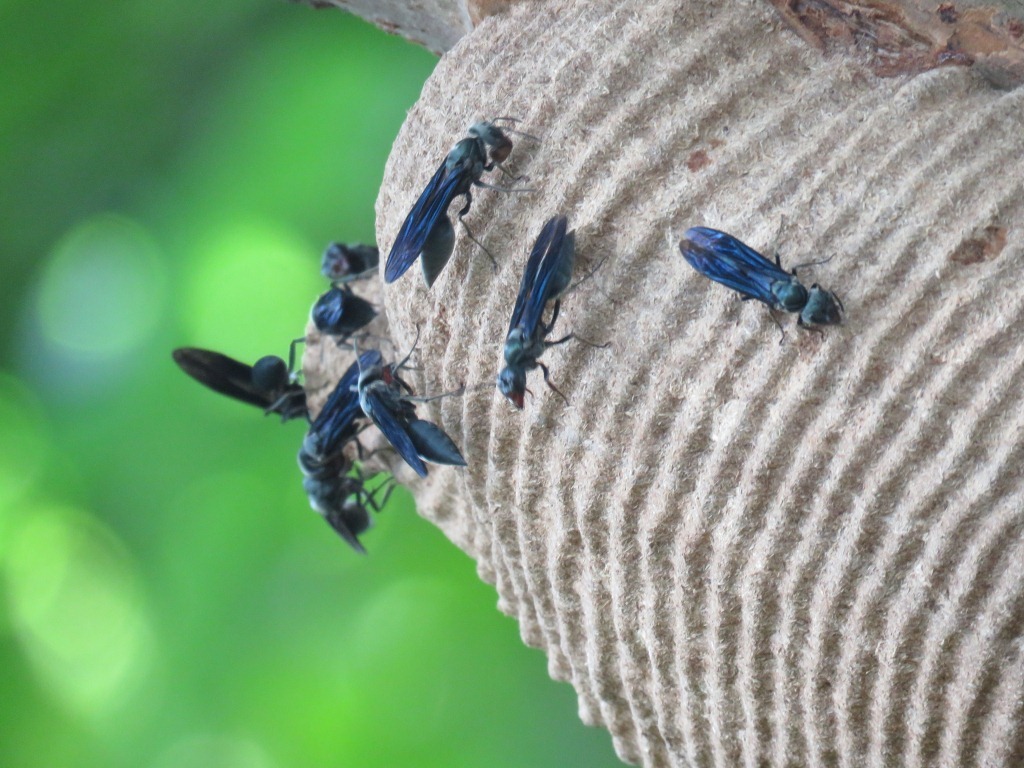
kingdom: Animalia
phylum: Arthropoda
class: Insecta
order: Hymenoptera
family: Vespidae
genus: Synoeca
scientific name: Synoeca septentrionalis
